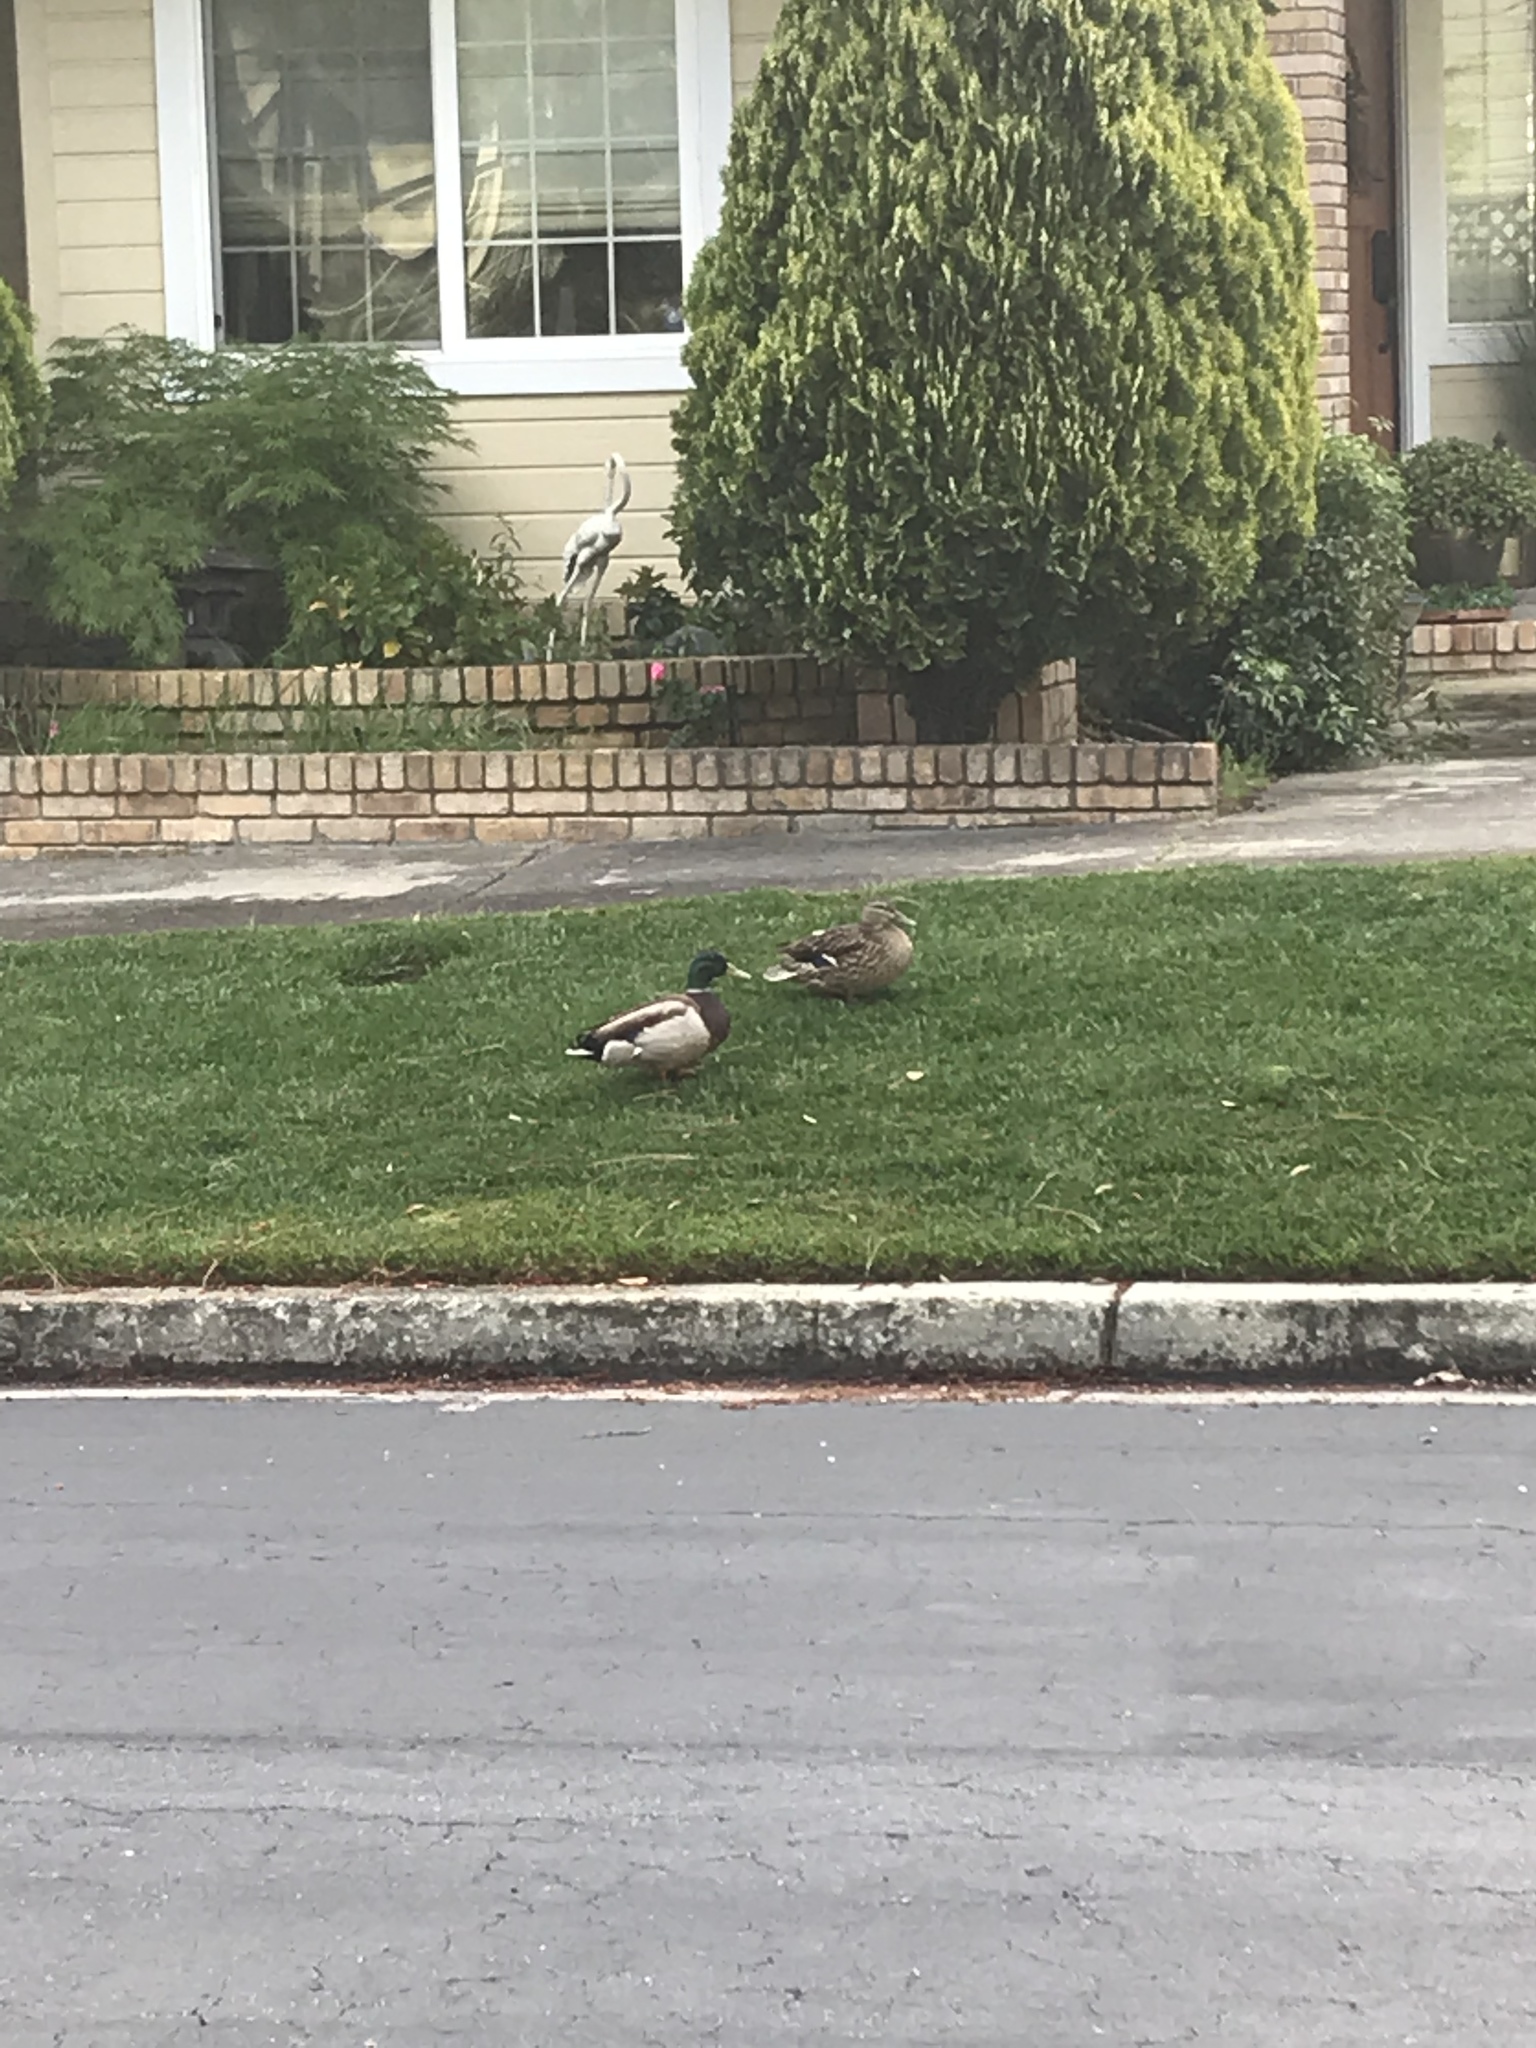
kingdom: Animalia
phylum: Chordata
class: Aves
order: Anseriformes
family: Anatidae
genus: Anas
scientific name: Anas platyrhynchos
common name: Mallard
